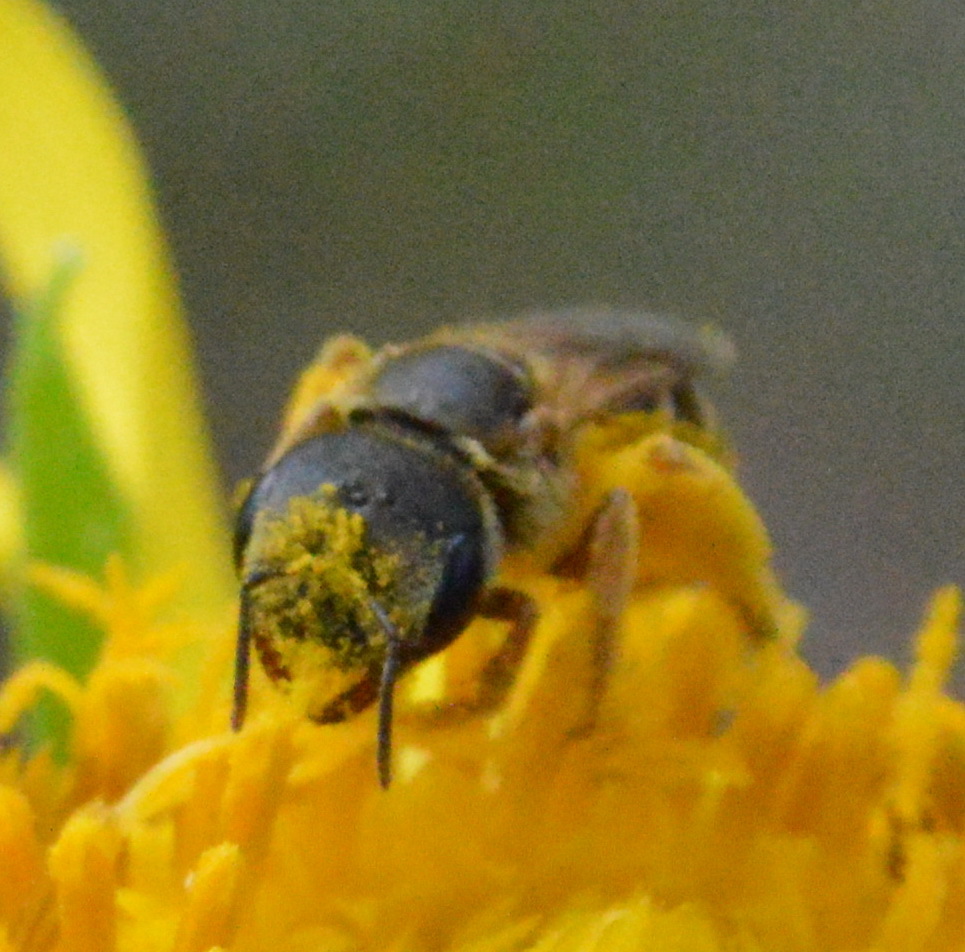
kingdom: Animalia
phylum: Arthropoda
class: Insecta
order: Hymenoptera
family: Halictidae
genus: Halictus
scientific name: Halictus ligatus
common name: Ligated furrow bee
